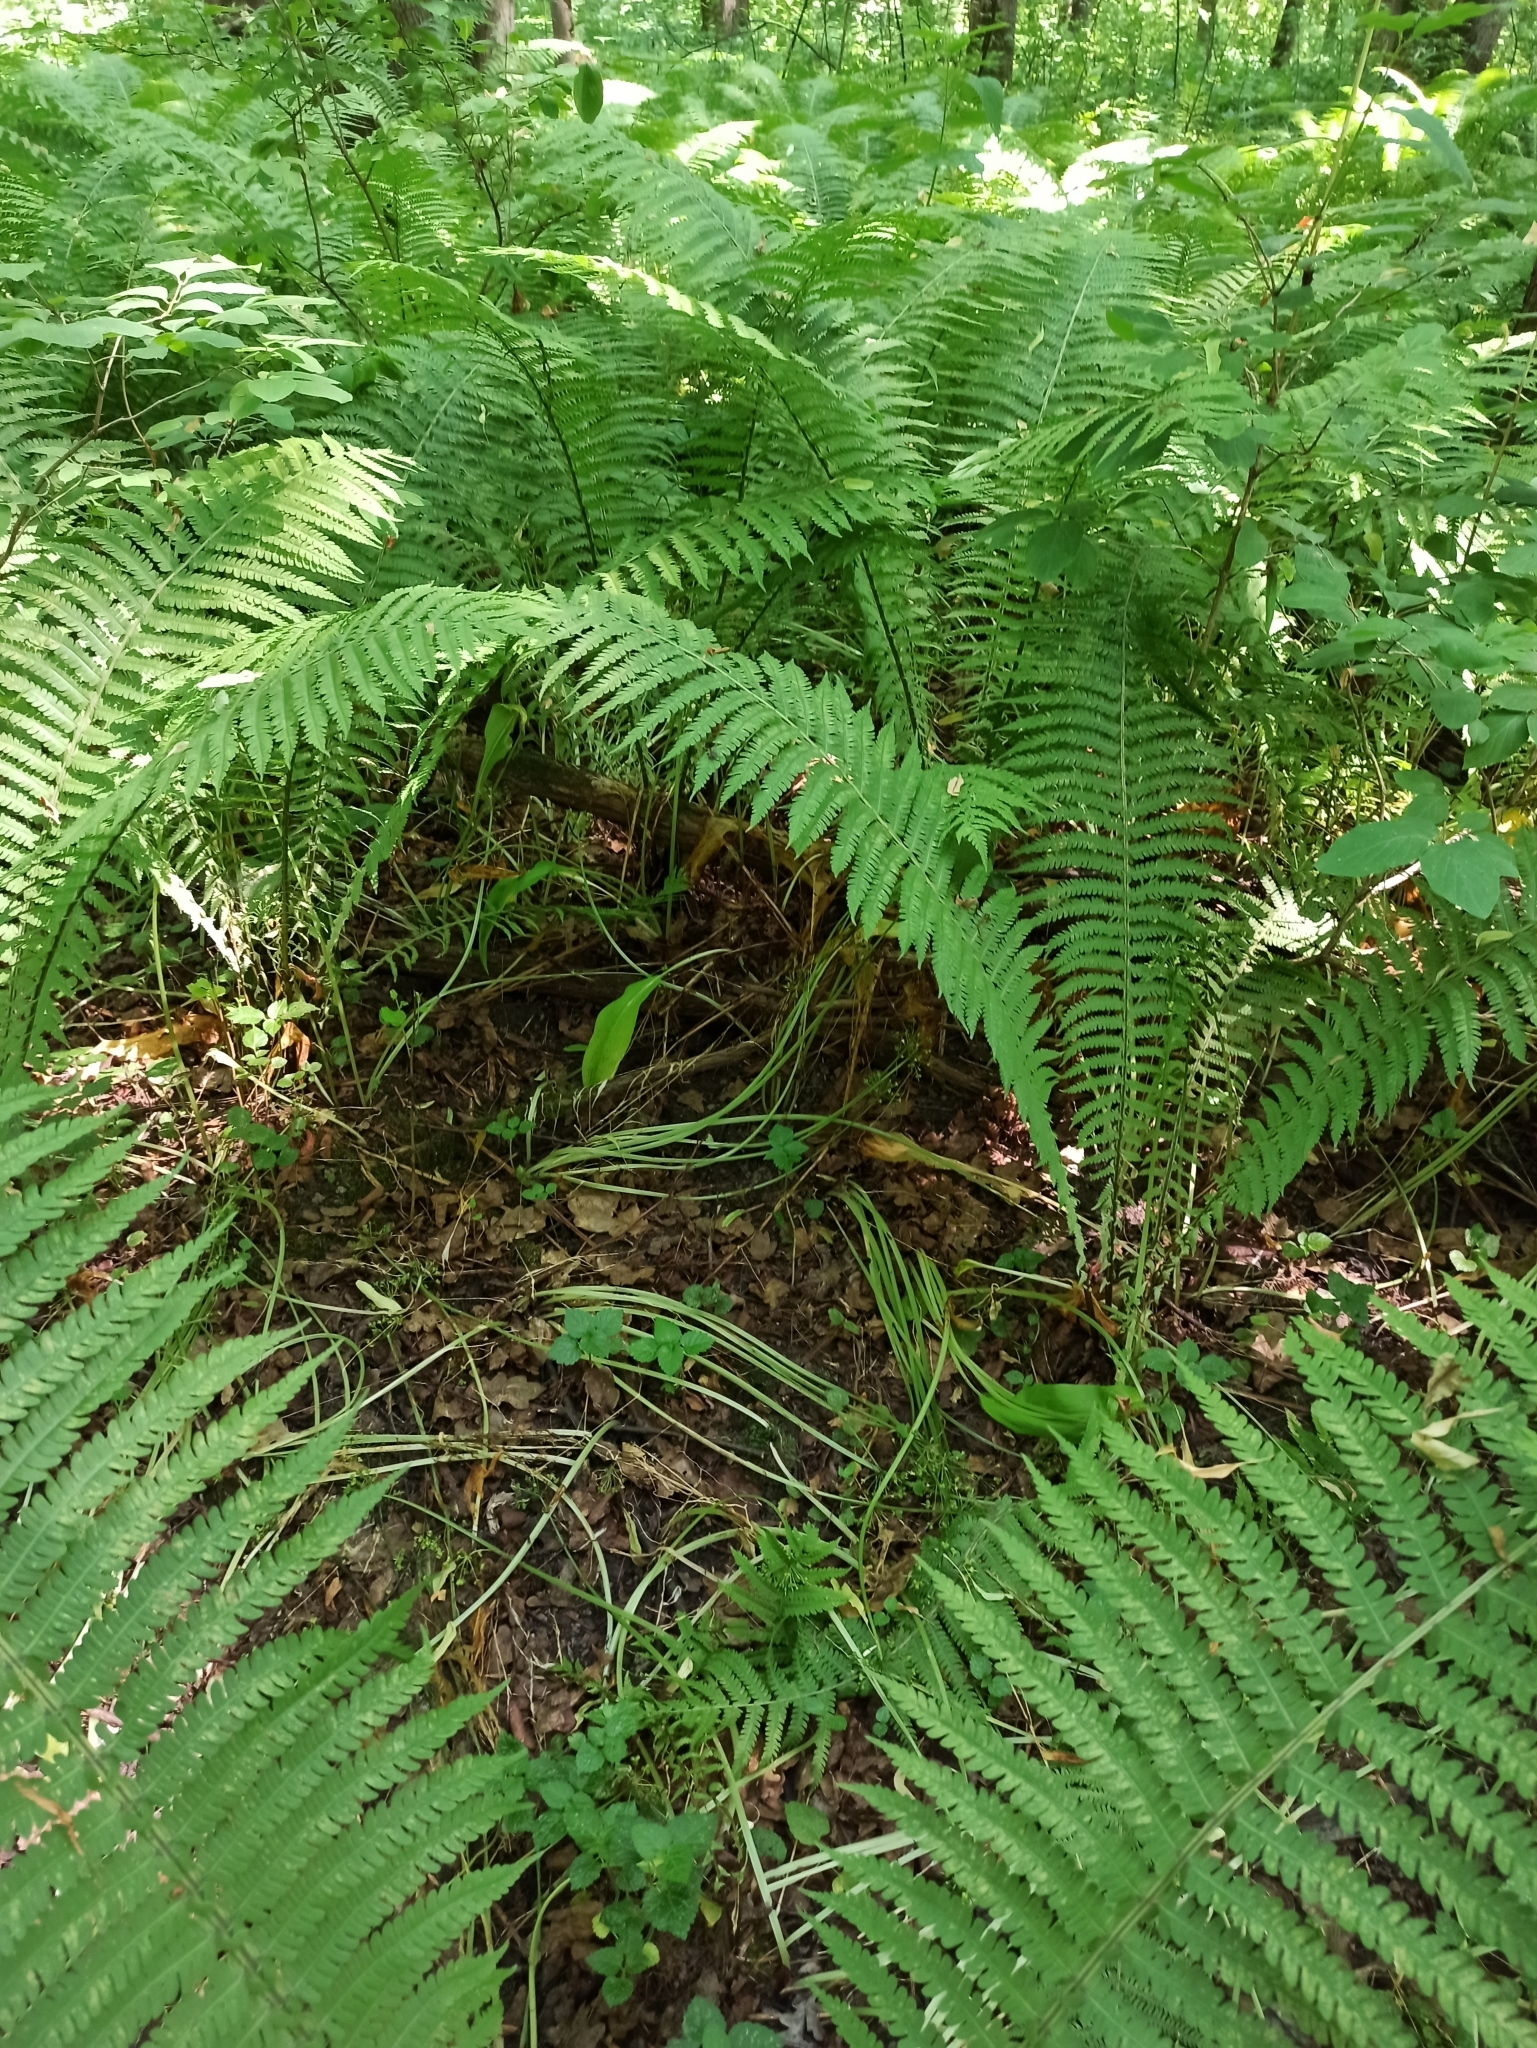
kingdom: Plantae
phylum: Tracheophyta
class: Polypodiopsida
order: Polypodiales
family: Onocleaceae
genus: Matteuccia
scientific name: Matteuccia struthiopteris
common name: Ostrich fern
